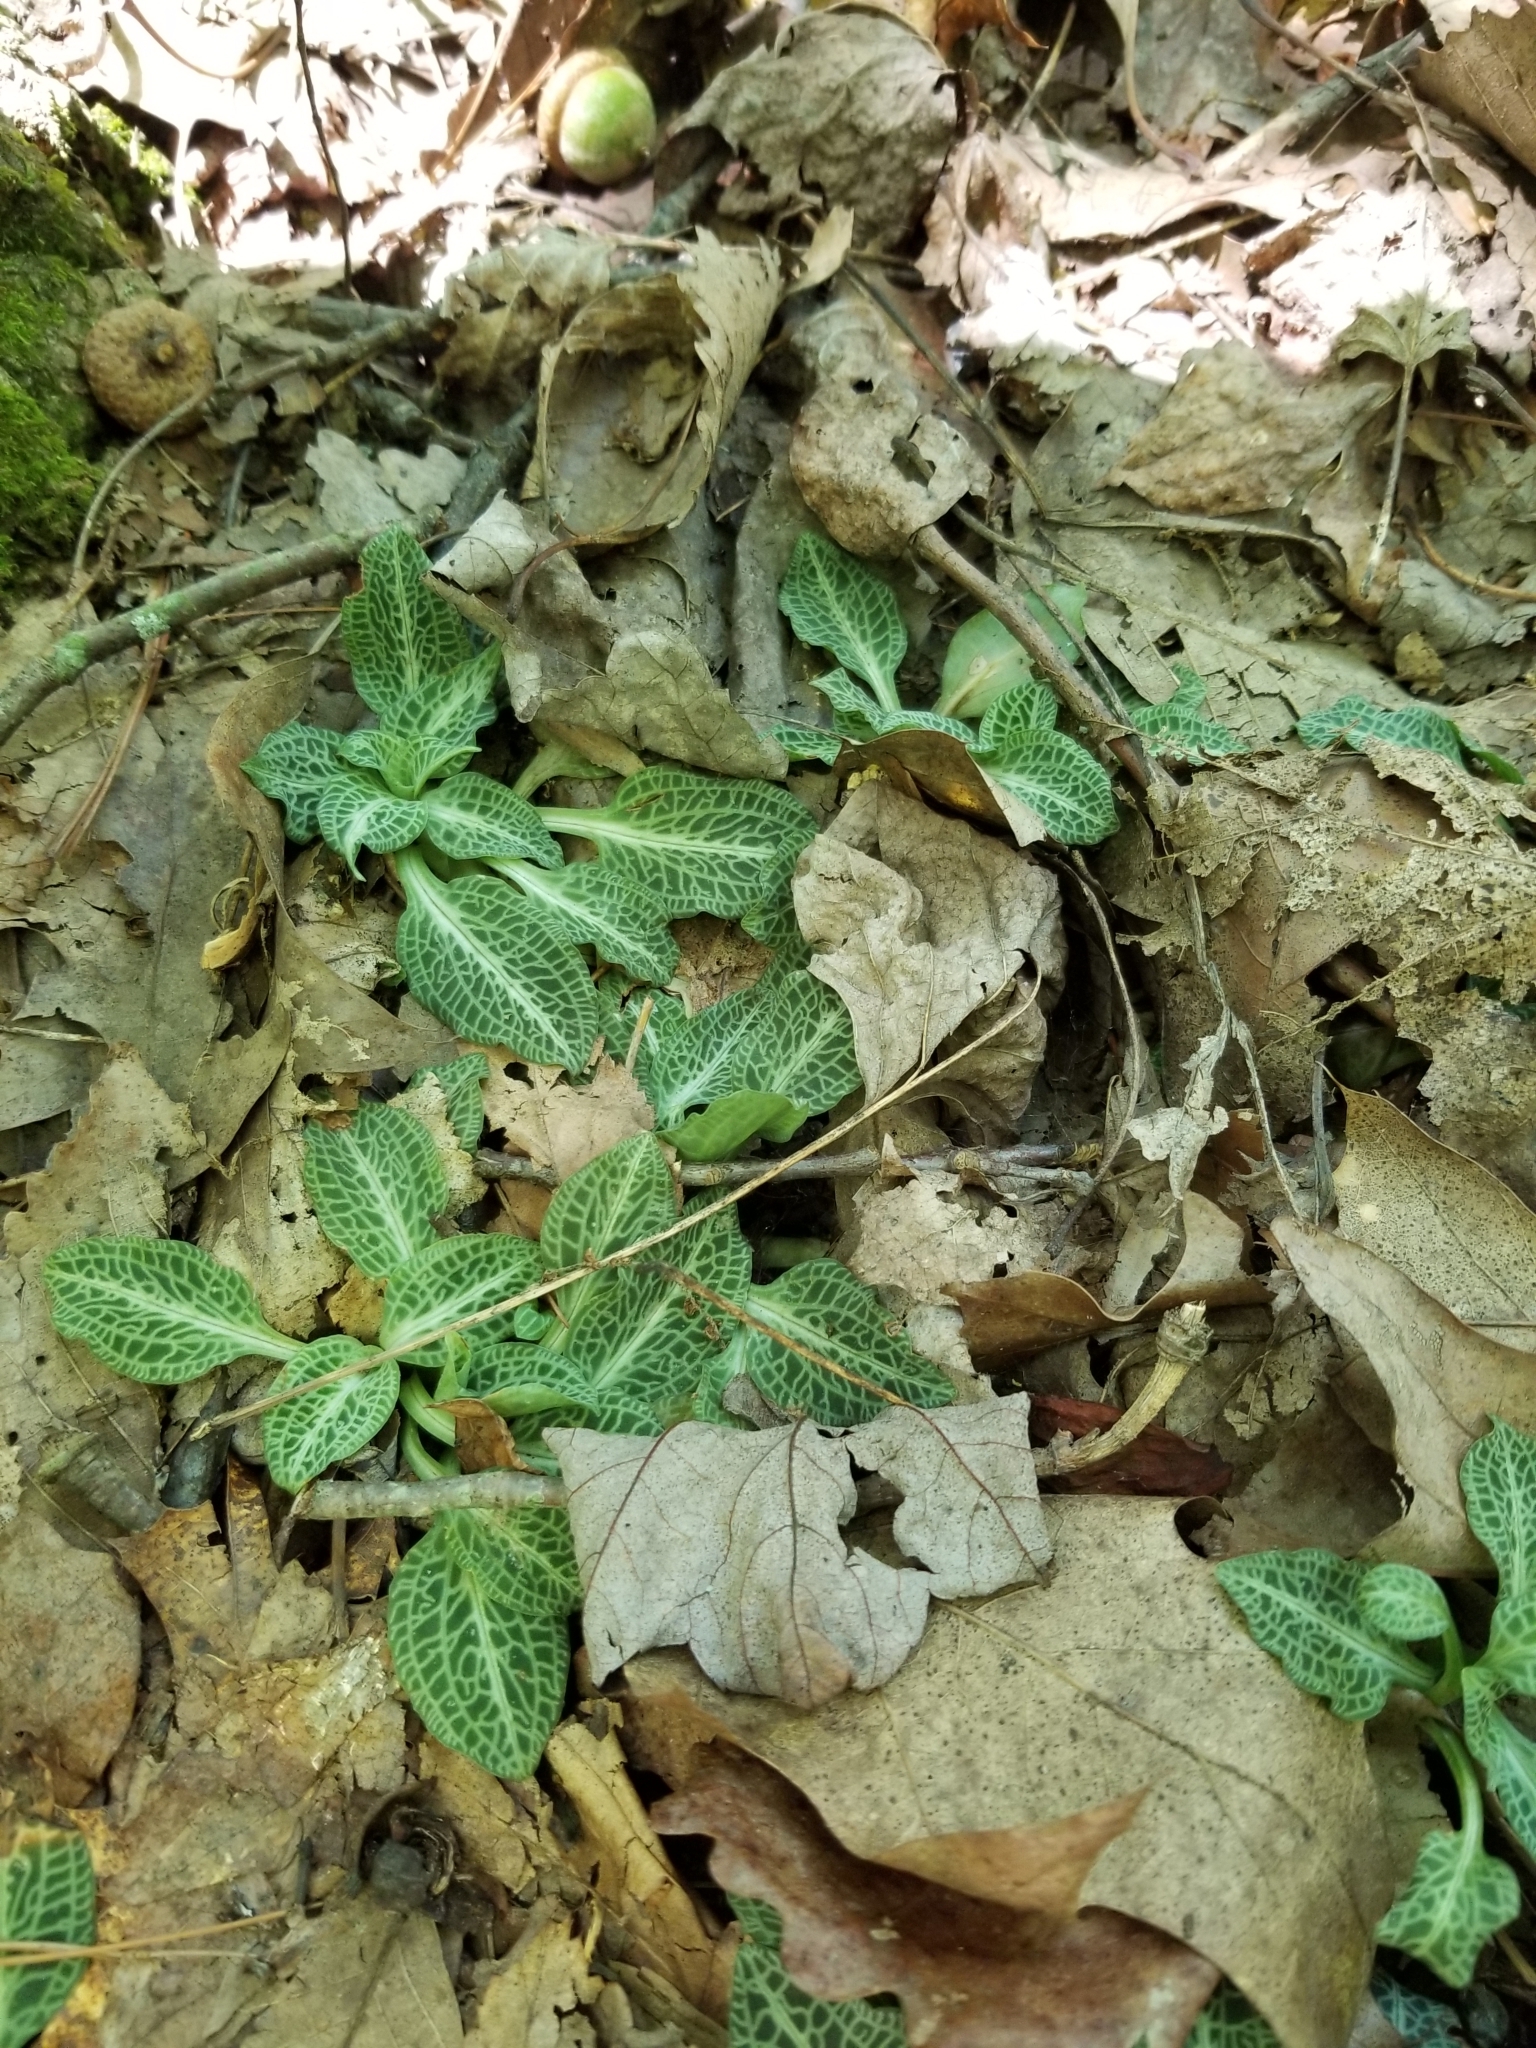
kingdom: Plantae
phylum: Tracheophyta
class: Liliopsida
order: Asparagales
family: Orchidaceae
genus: Goodyera
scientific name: Goodyera pubescens
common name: Downy rattlesnake-plantain
